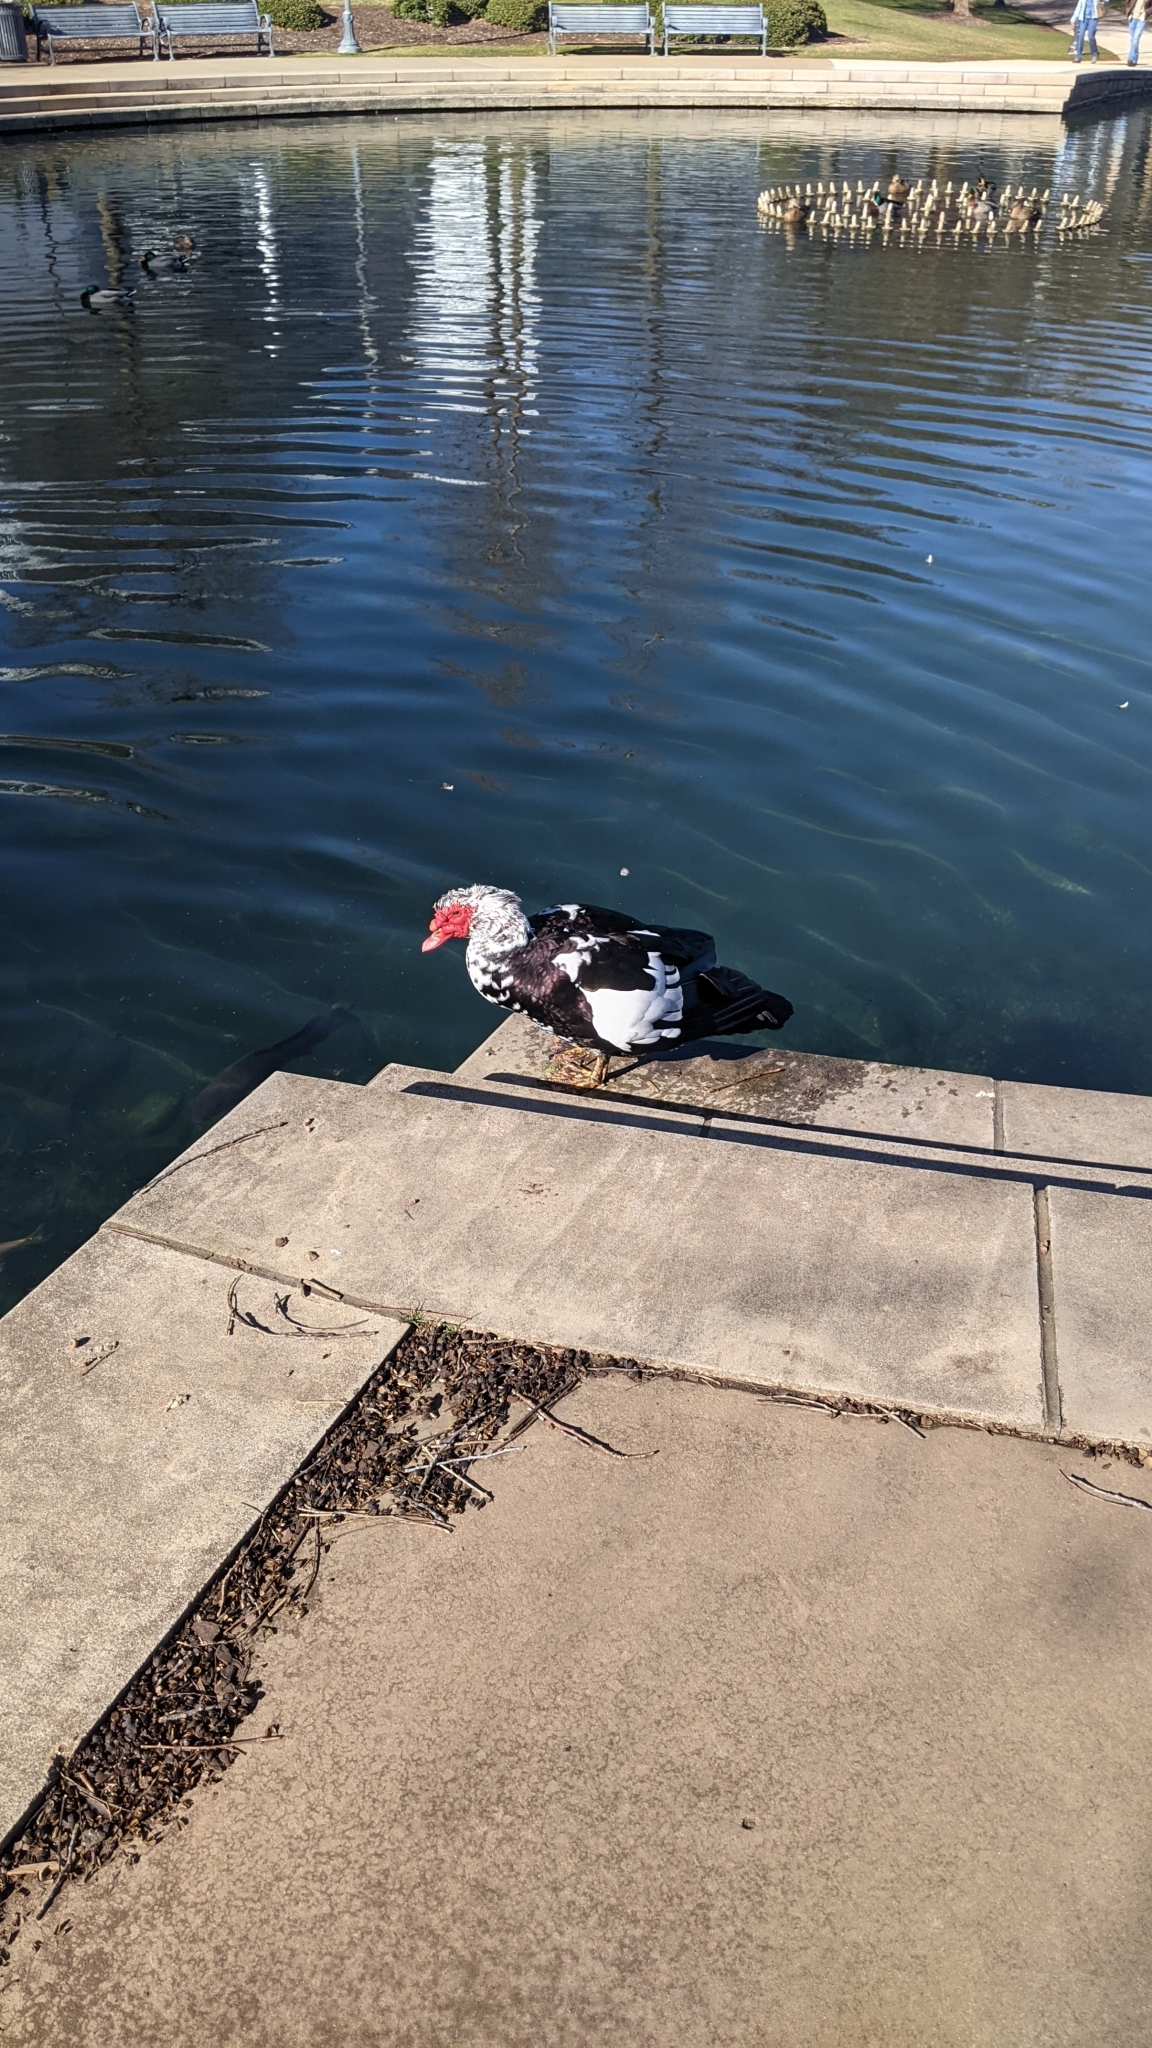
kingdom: Animalia
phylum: Chordata
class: Aves
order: Anseriformes
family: Anatidae
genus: Cairina
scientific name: Cairina moschata
